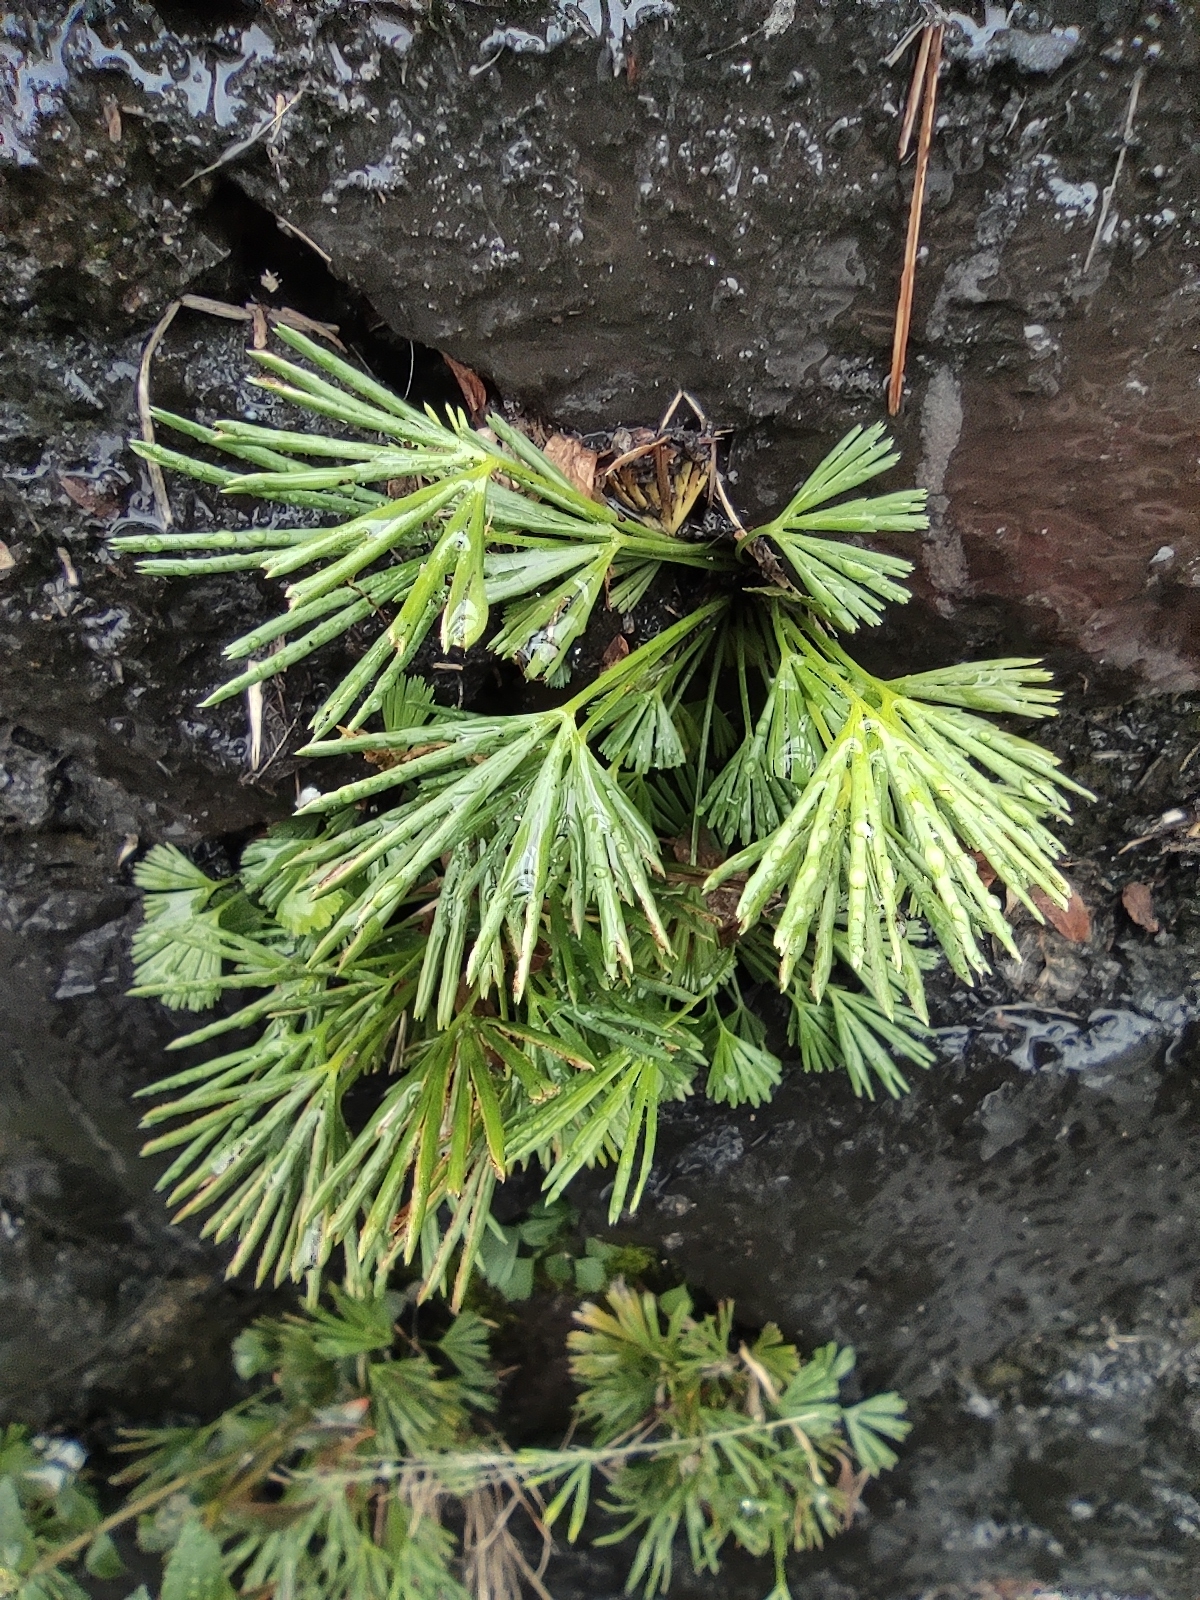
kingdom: Plantae
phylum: Tracheophyta
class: Polypodiopsida
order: Polypodiales
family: Pteridaceae
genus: Actiniopteris
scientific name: Actiniopteris semiflabellata
